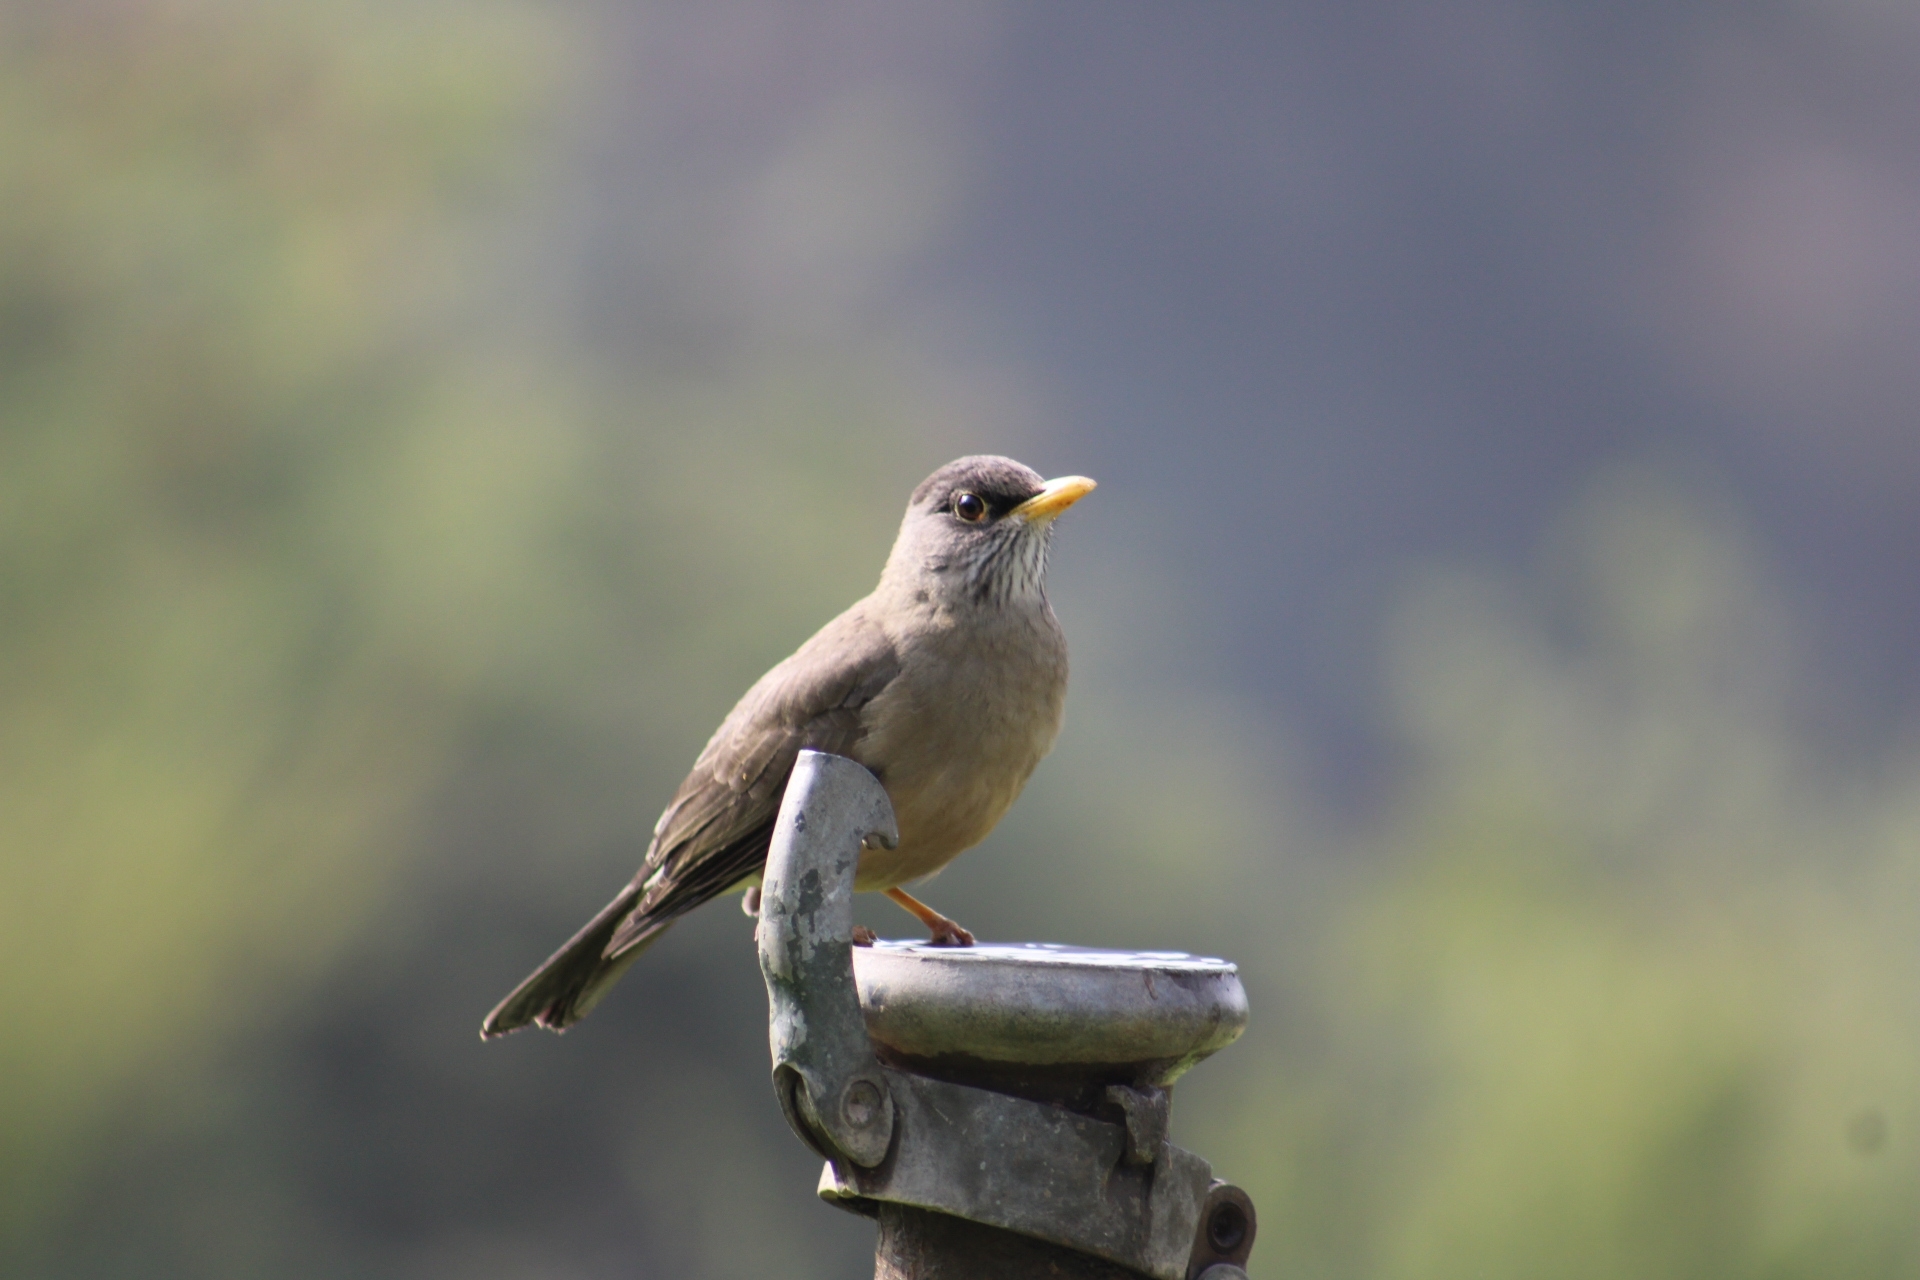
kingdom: Animalia
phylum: Chordata
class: Aves
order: Passeriformes
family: Turdidae
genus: Turdus
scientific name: Turdus falcklandii
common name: Austral thrush
